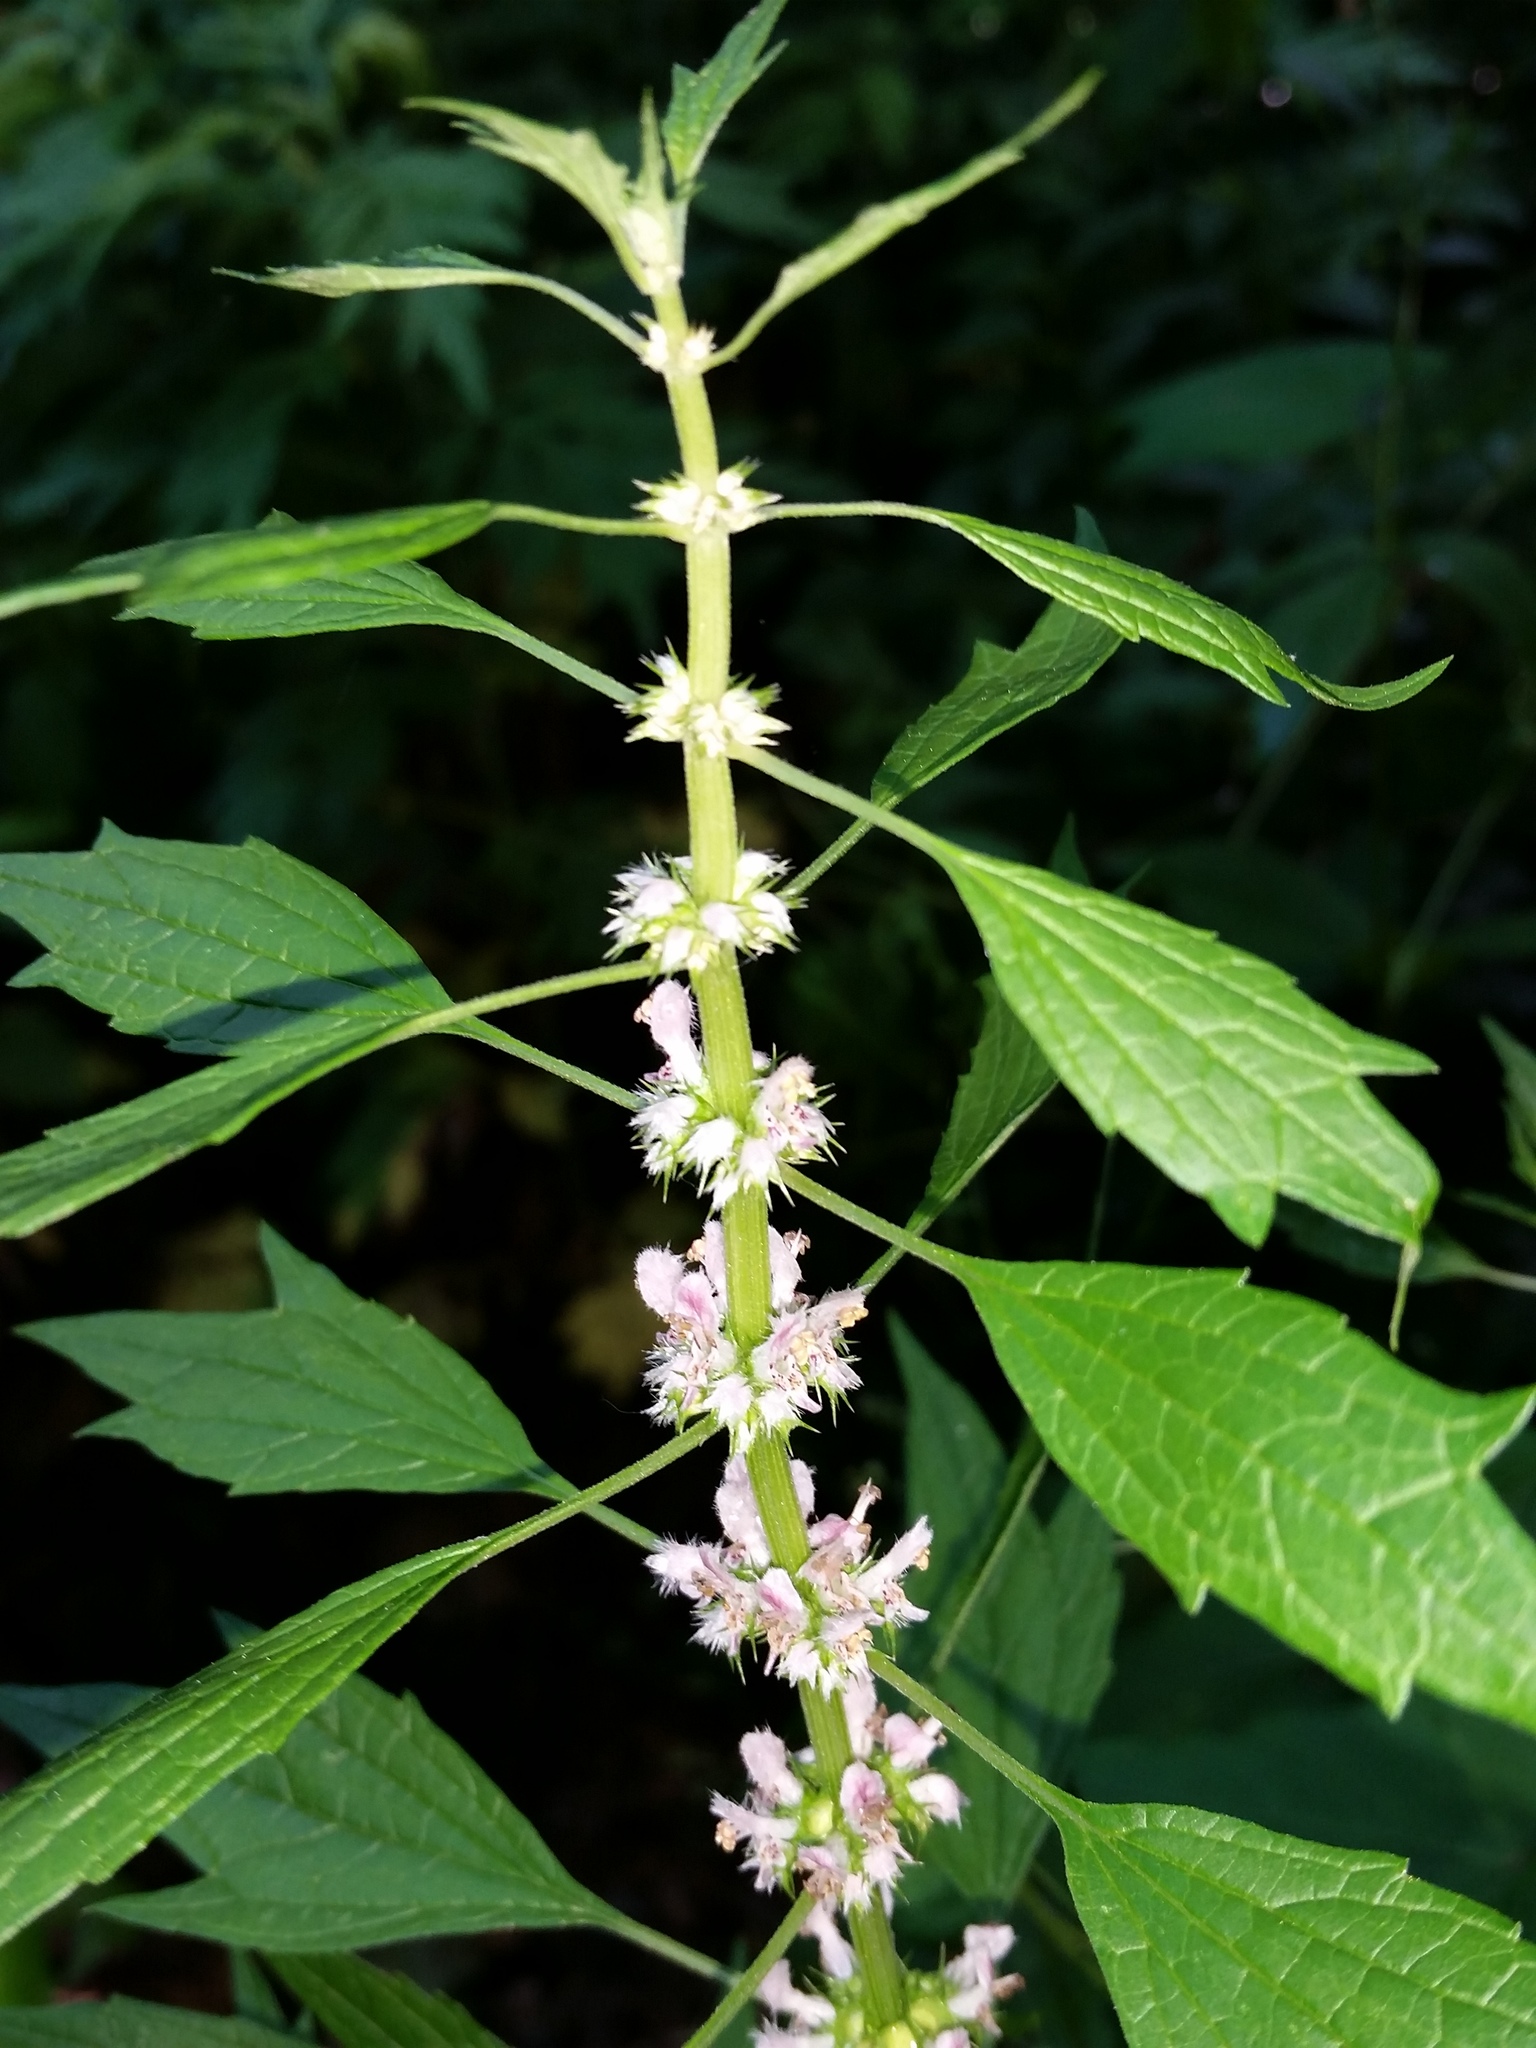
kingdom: Plantae
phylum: Tracheophyta
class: Magnoliopsida
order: Lamiales
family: Lamiaceae
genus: Leonurus
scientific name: Leonurus cardiaca
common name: Motherwort
